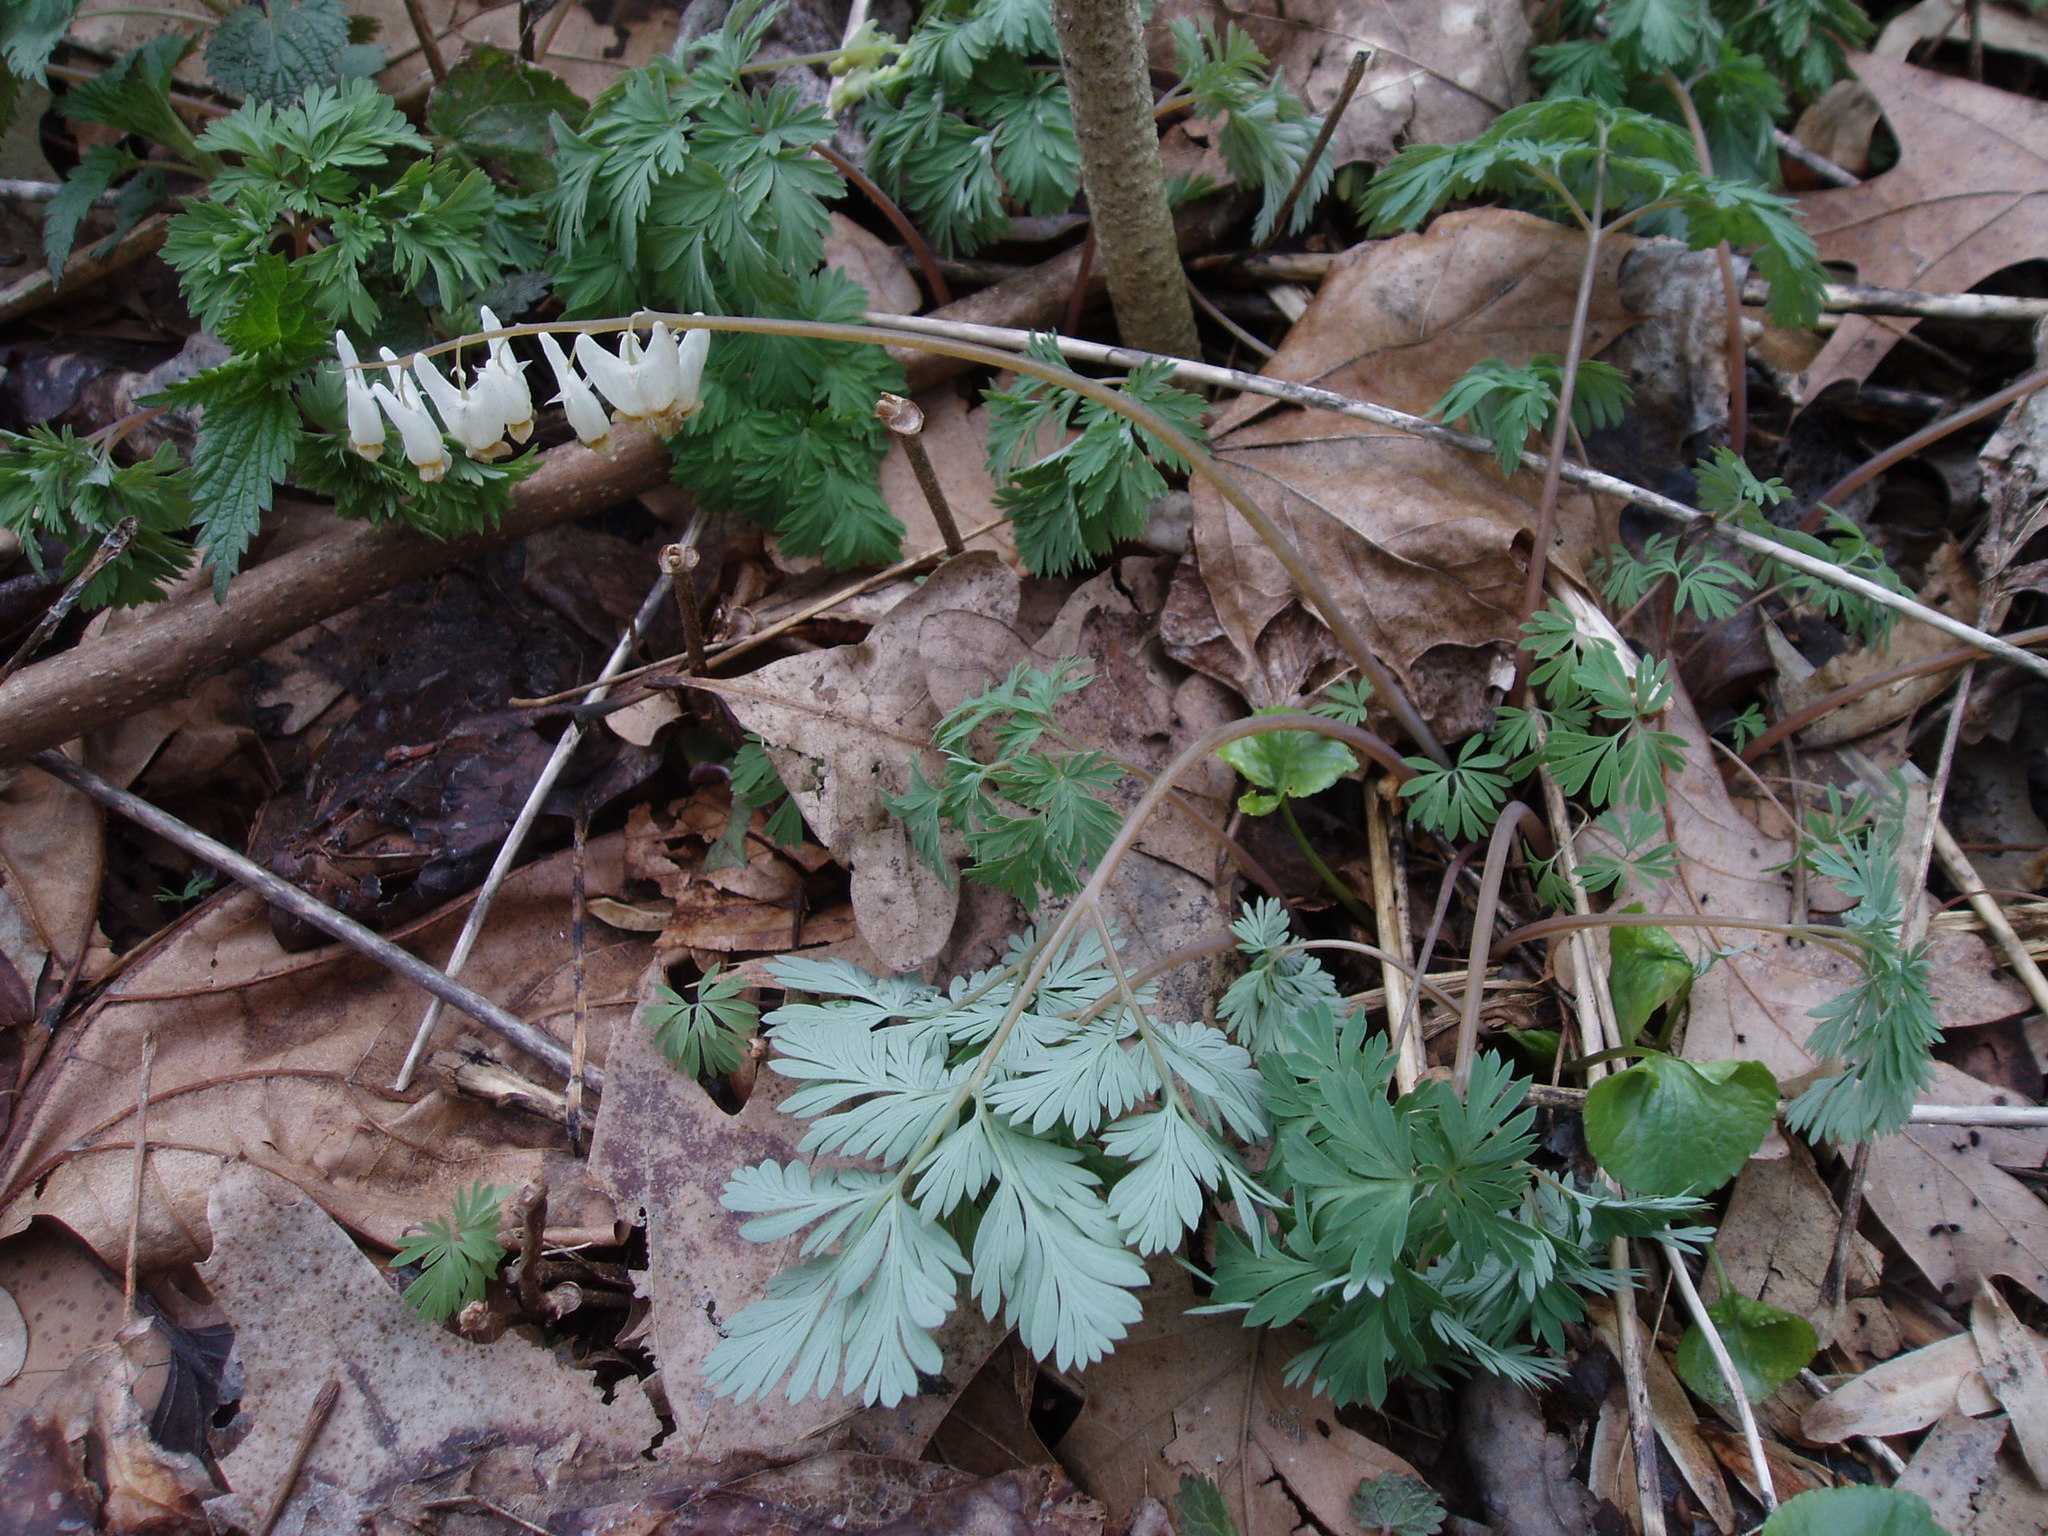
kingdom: Plantae
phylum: Tracheophyta
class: Magnoliopsida
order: Ranunculales
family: Papaveraceae
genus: Dicentra
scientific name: Dicentra cucullaria
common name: Dutchman's breeches
